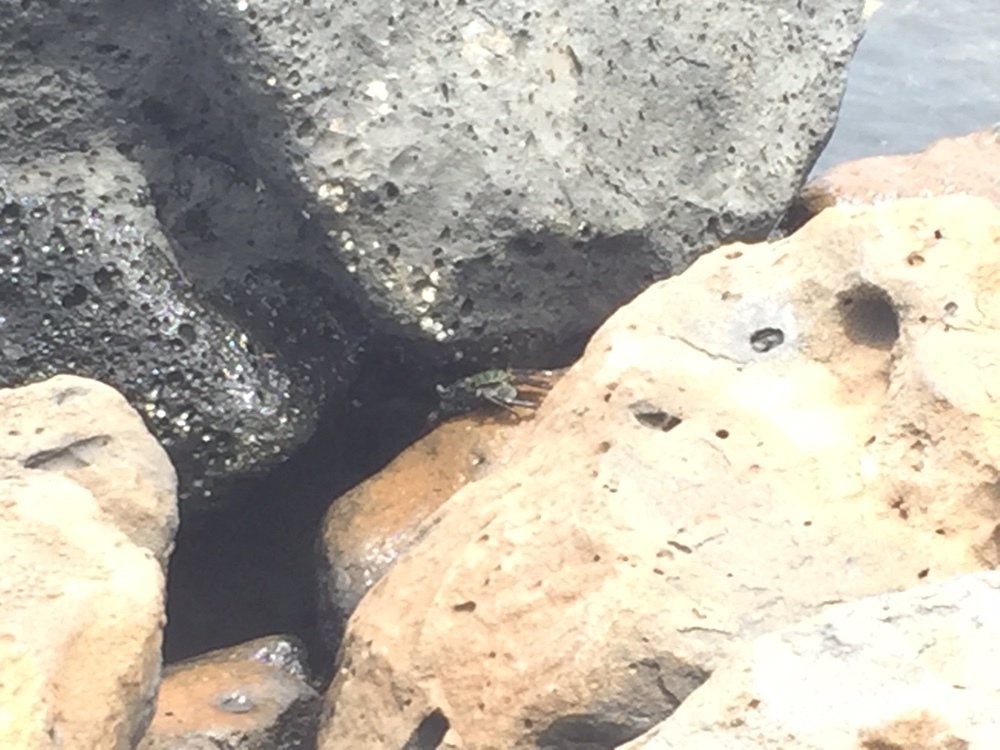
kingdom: Animalia
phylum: Arthropoda
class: Malacostraca
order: Decapoda
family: Grapsidae
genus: Grapsus
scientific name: Grapsus tenuicrustatus
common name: Natal lightfoot crab
